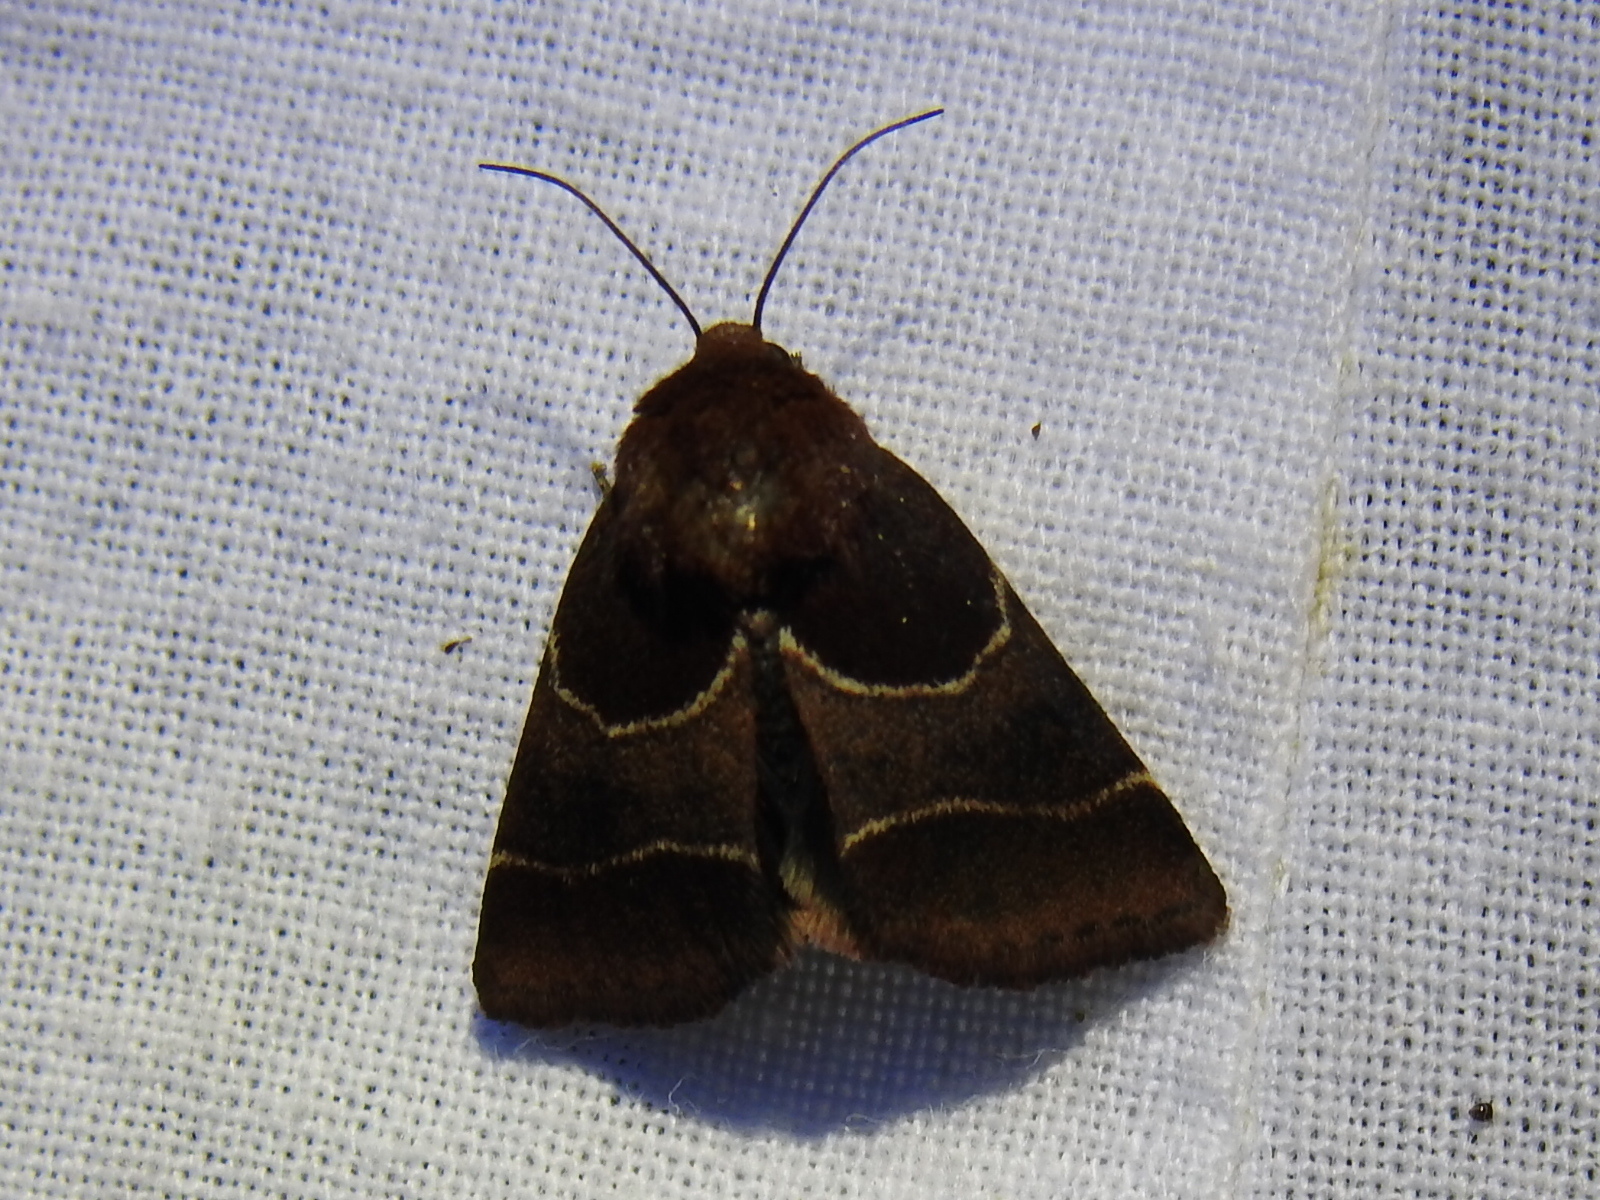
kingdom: Animalia
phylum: Arthropoda
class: Insecta
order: Lepidoptera
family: Noctuidae
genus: Schinia
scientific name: Schinia arcigera
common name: Arcigera flower moth
